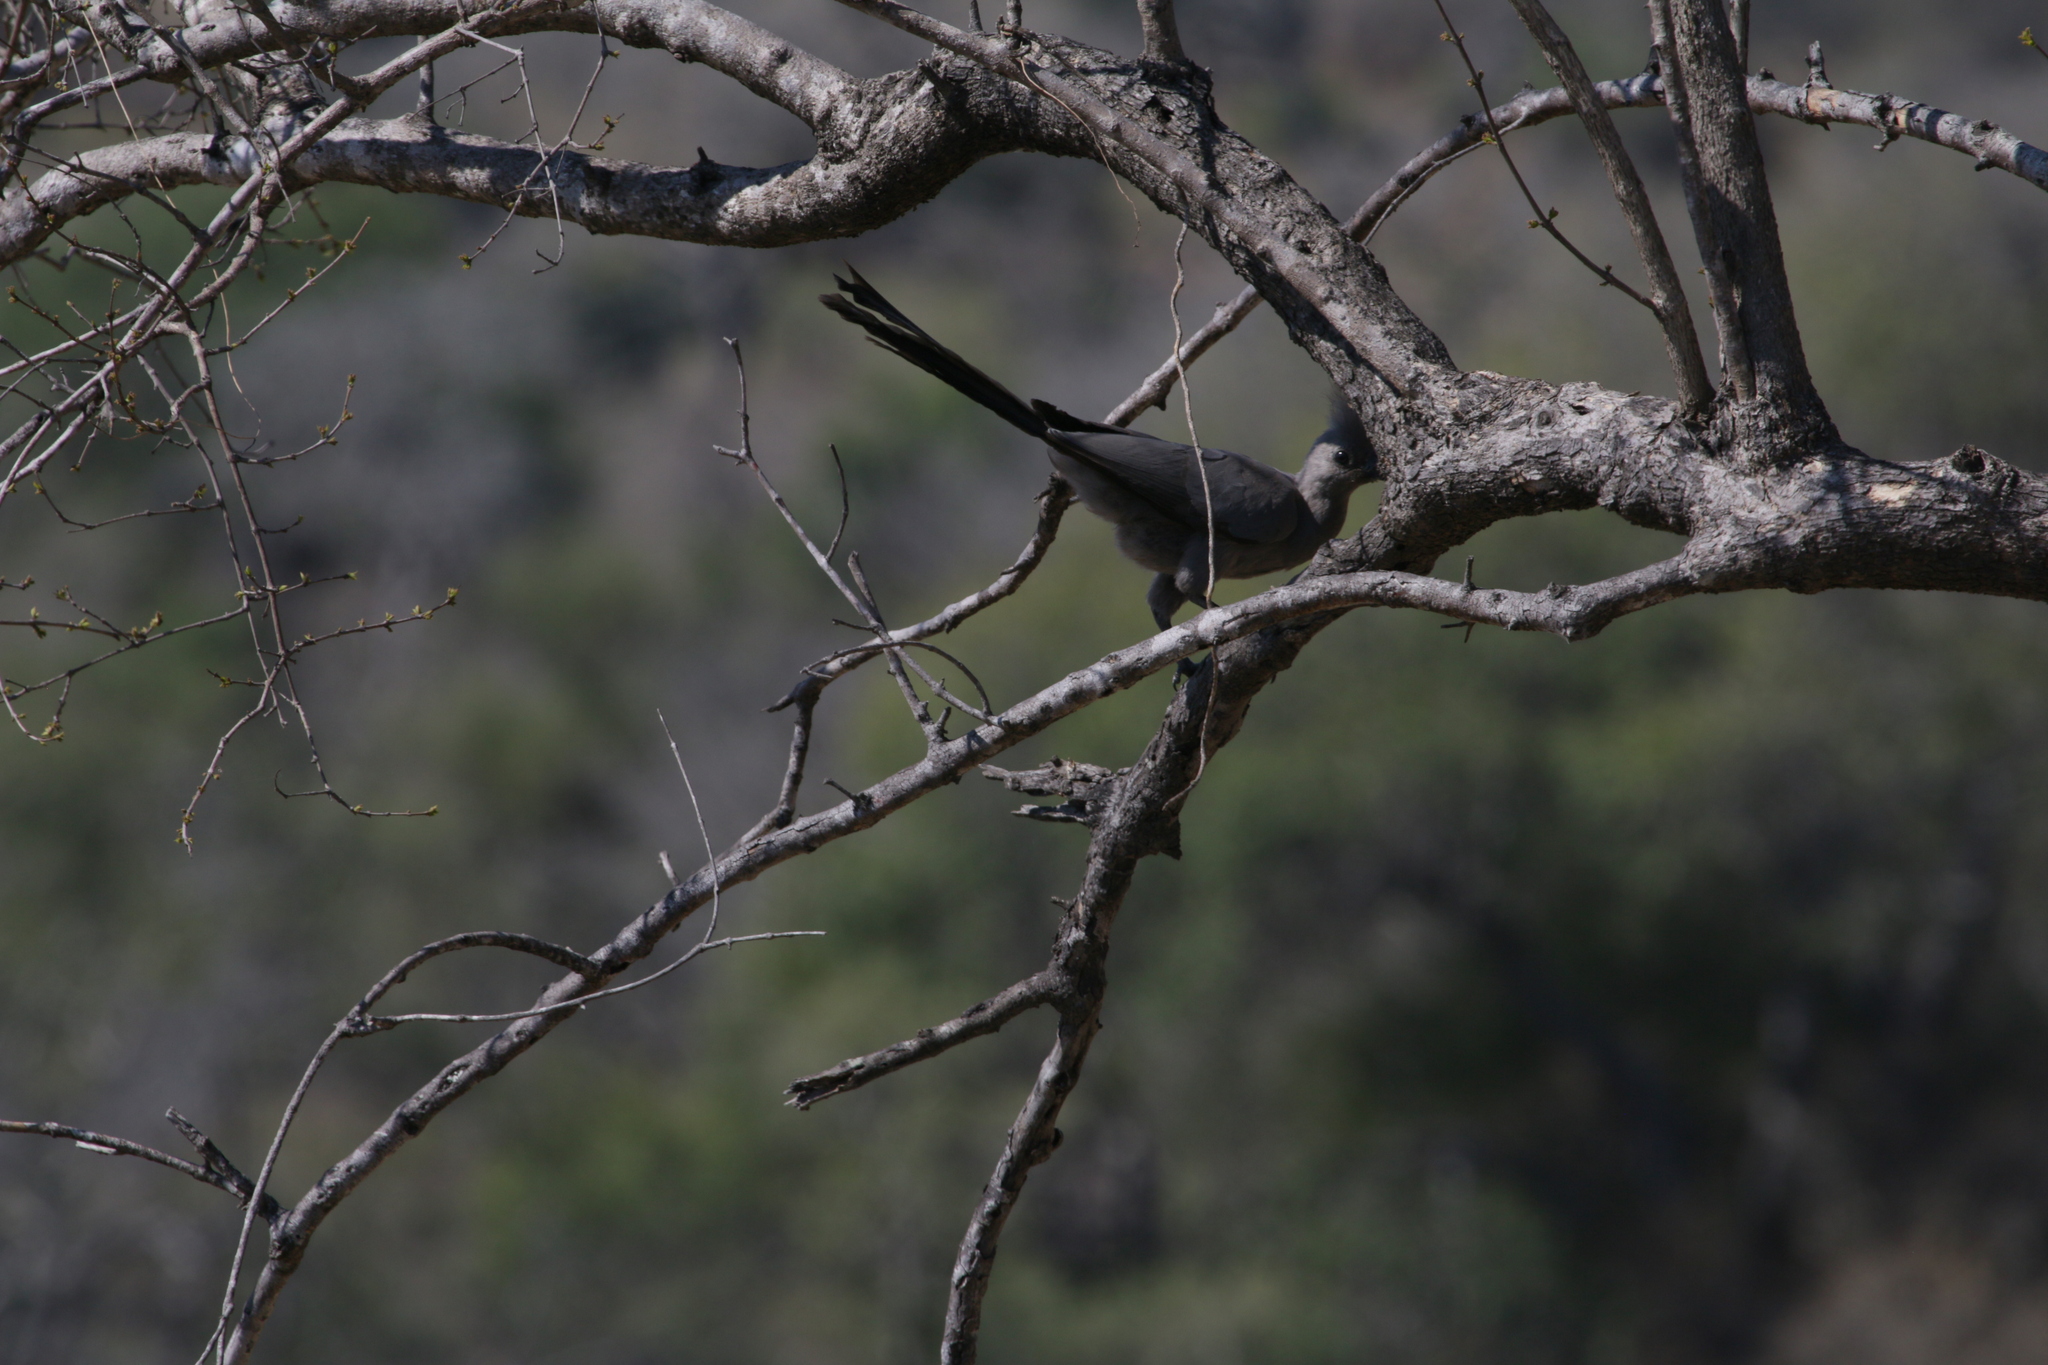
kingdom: Animalia
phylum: Chordata
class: Aves
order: Musophagiformes
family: Musophagidae
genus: Corythaixoides
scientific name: Corythaixoides concolor
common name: Grey go-away-bird
